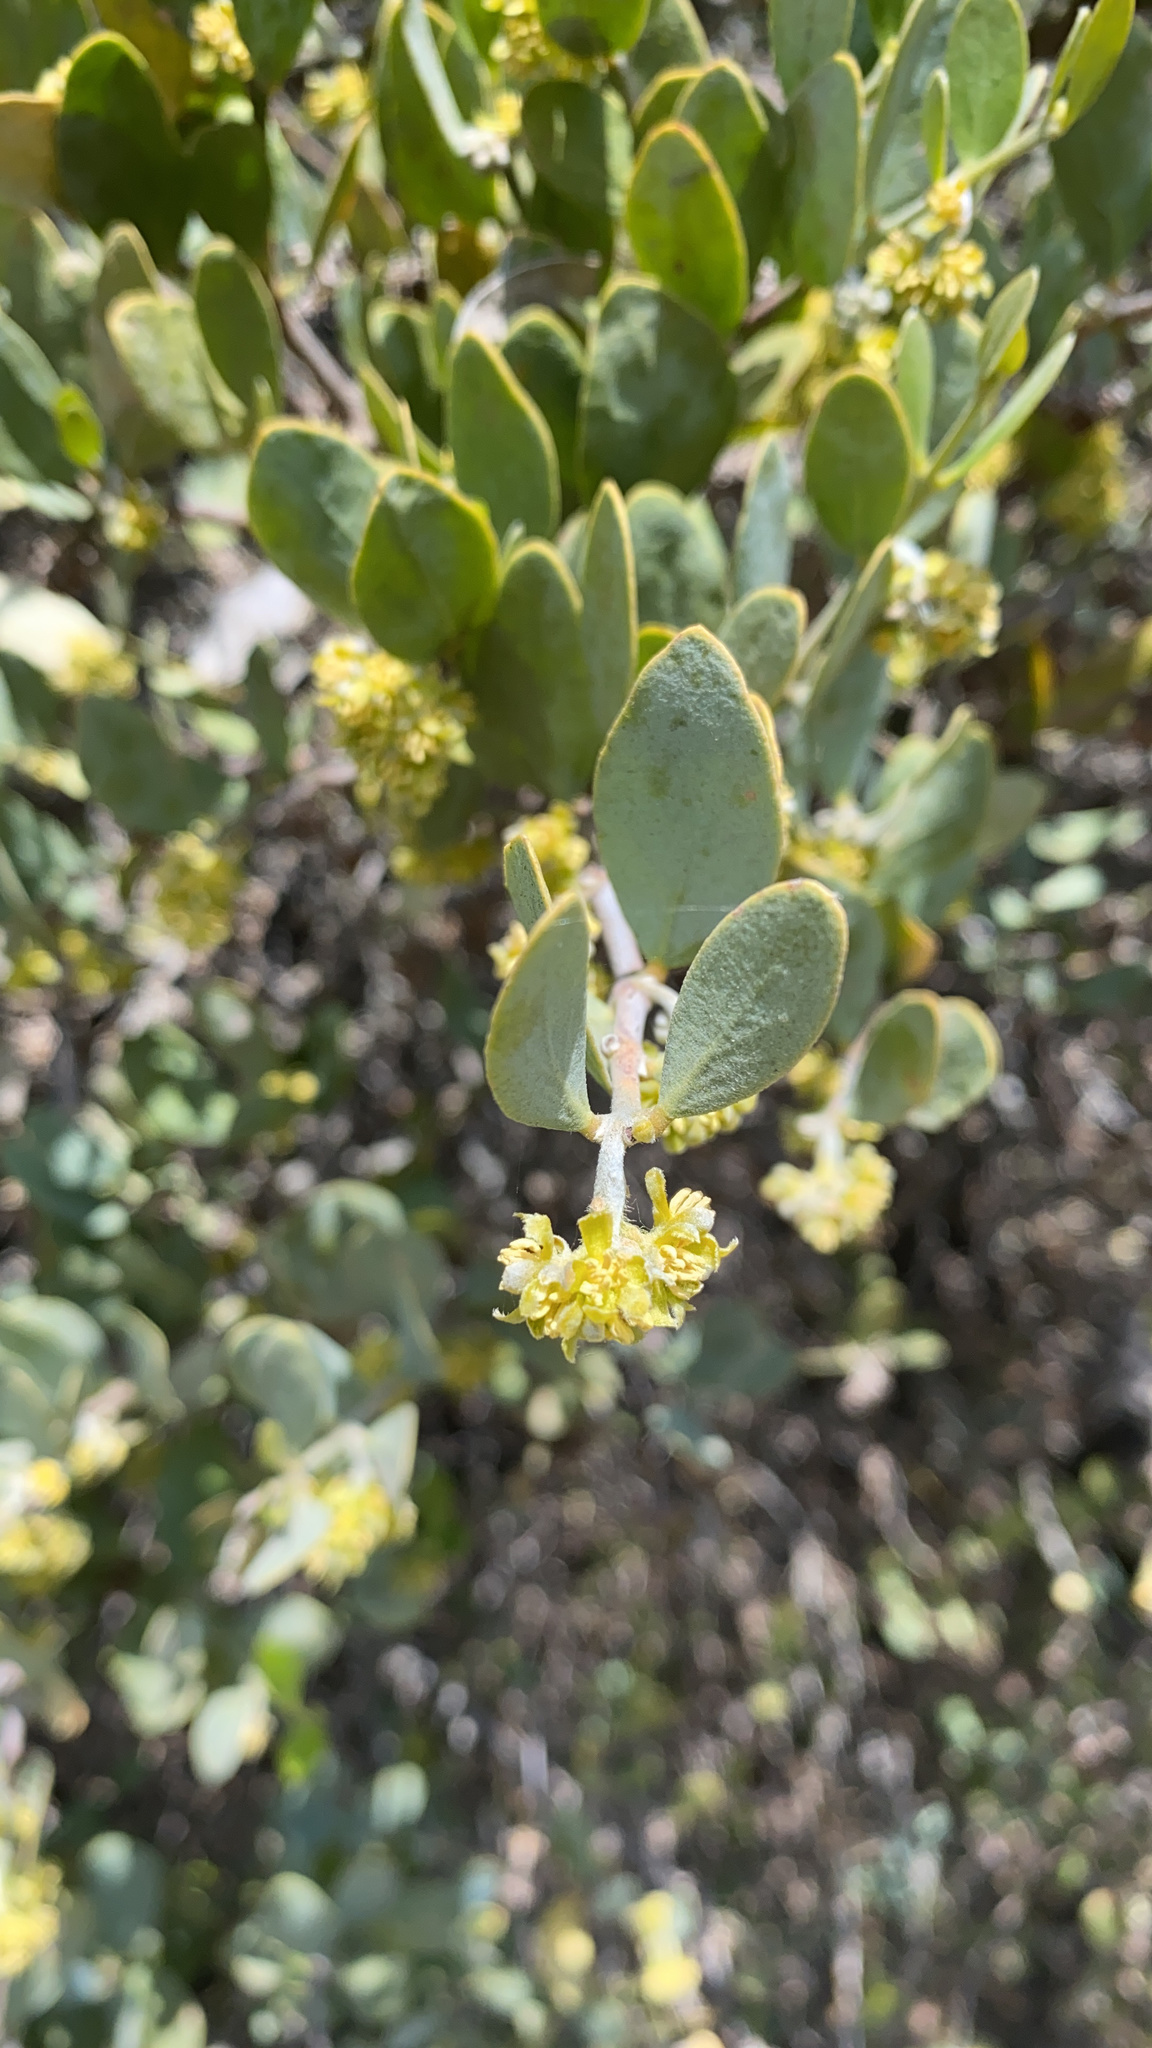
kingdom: Plantae
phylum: Tracheophyta
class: Magnoliopsida
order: Caryophyllales
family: Simmondsiaceae
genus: Simmondsia
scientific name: Simmondsia chinensis
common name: Jojoba
